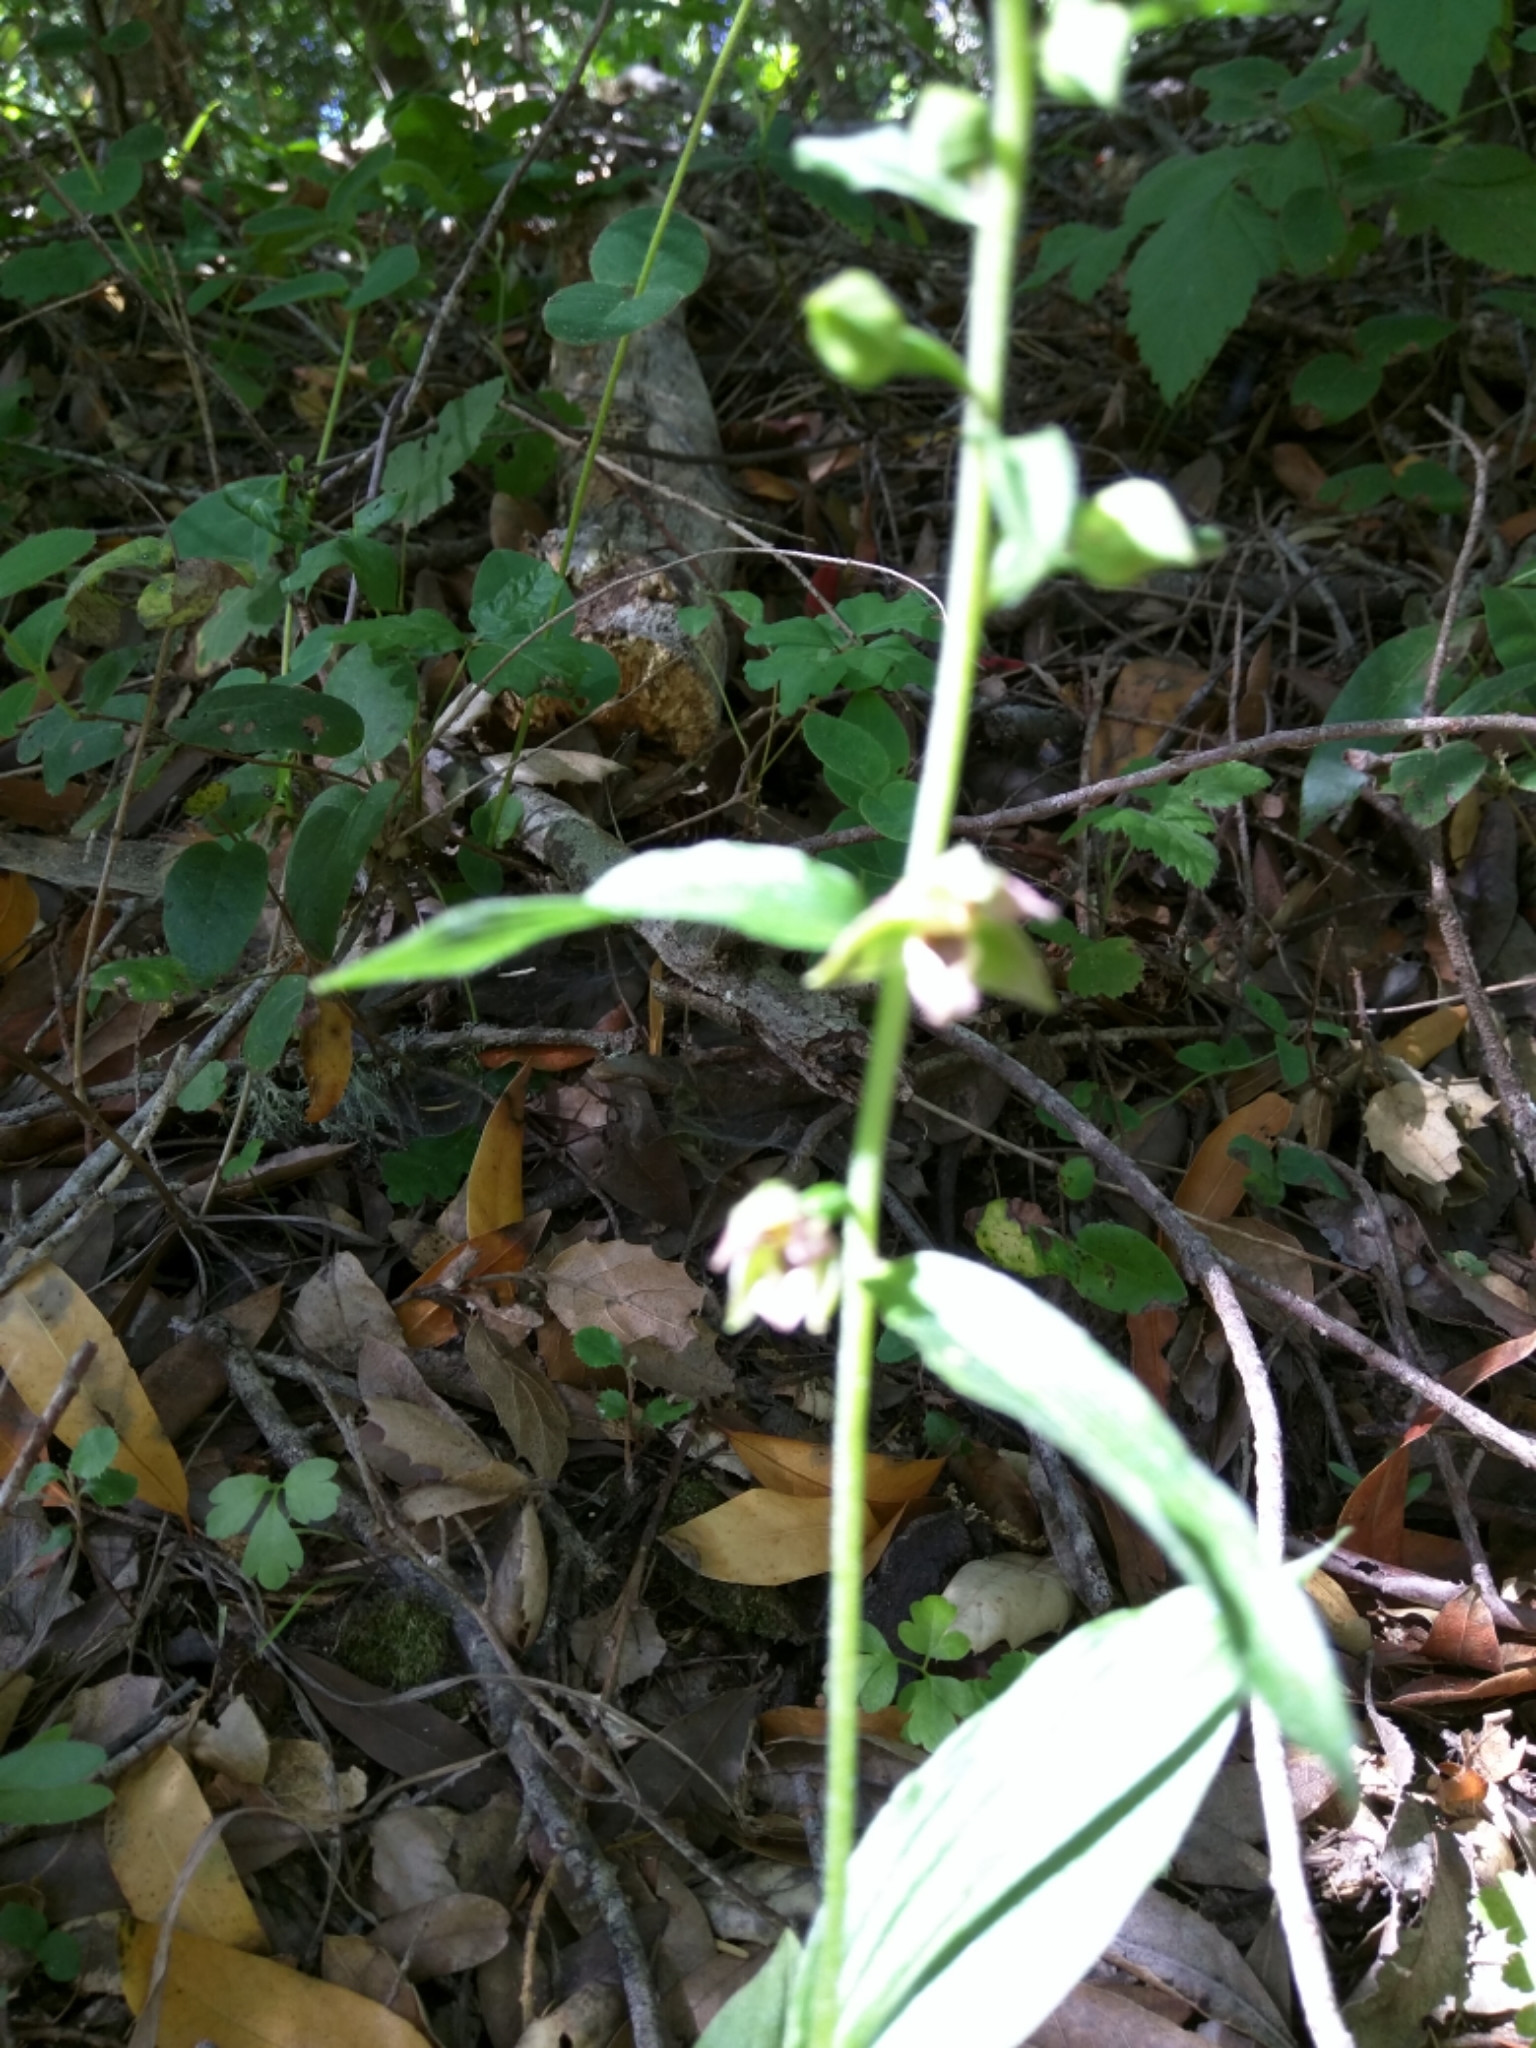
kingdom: Plantae
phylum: Tracheophyta
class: Liliopsida
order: Asparagales
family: Orchidaceae
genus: Epipactis
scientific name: Epipactis helleborine
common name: Broad-leaved helleborine
